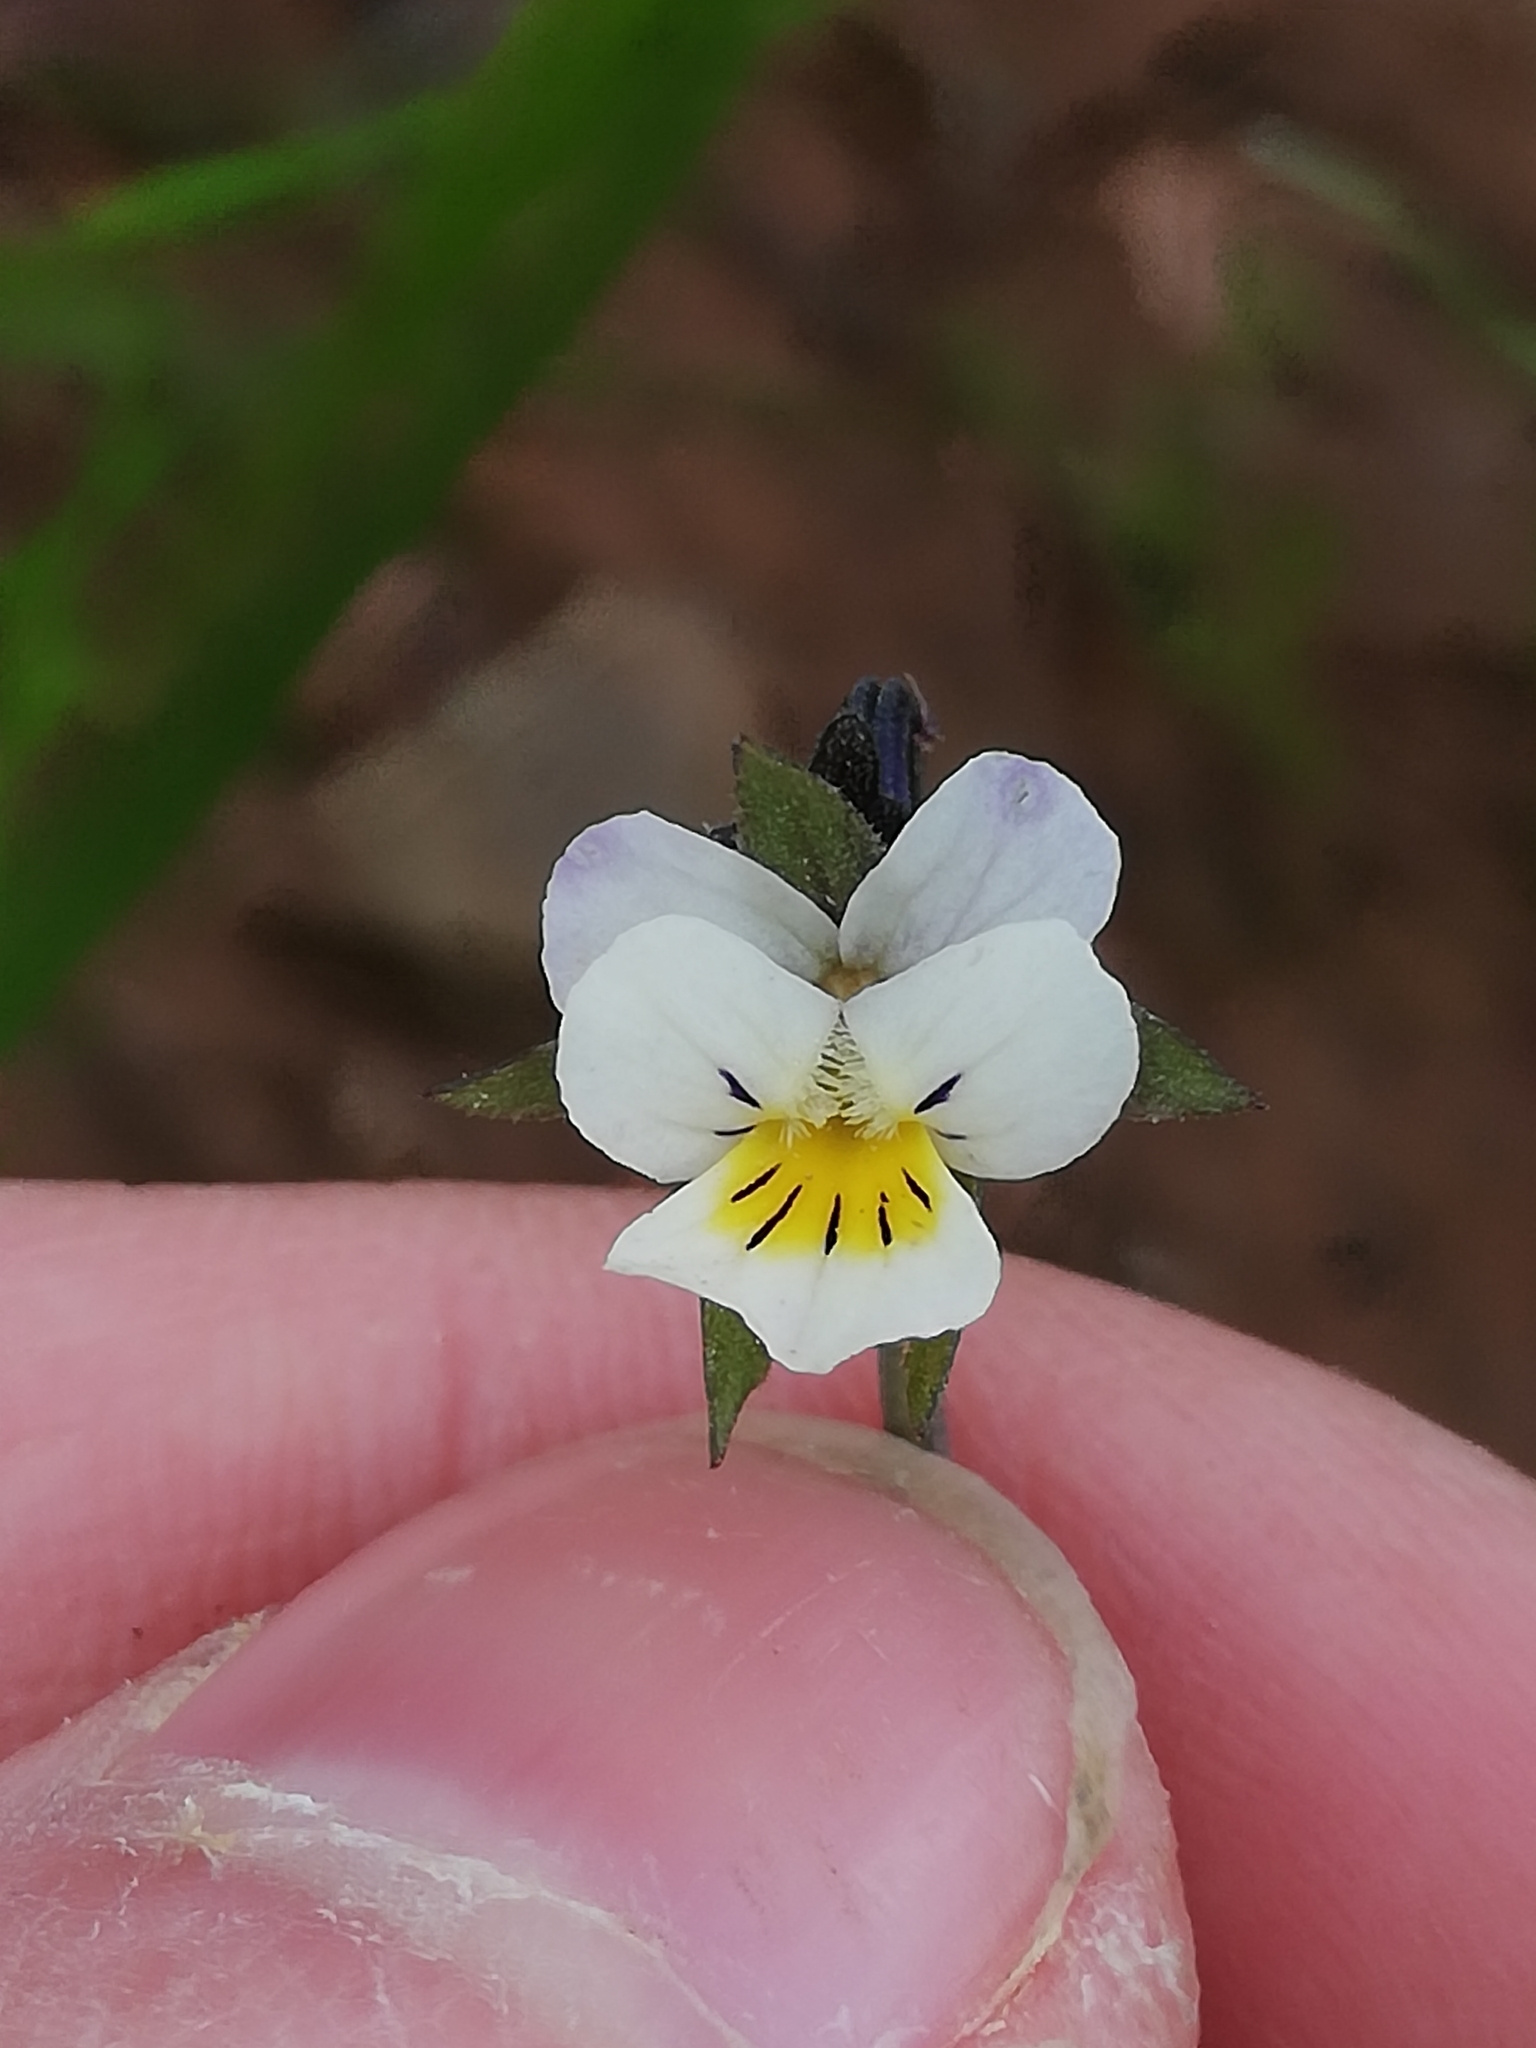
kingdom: Plantae
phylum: Tracheophyta
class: Magnoliopsida
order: Malpighiales
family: Violaceae
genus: Viola
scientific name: Viola arvensis
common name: Field pansy
